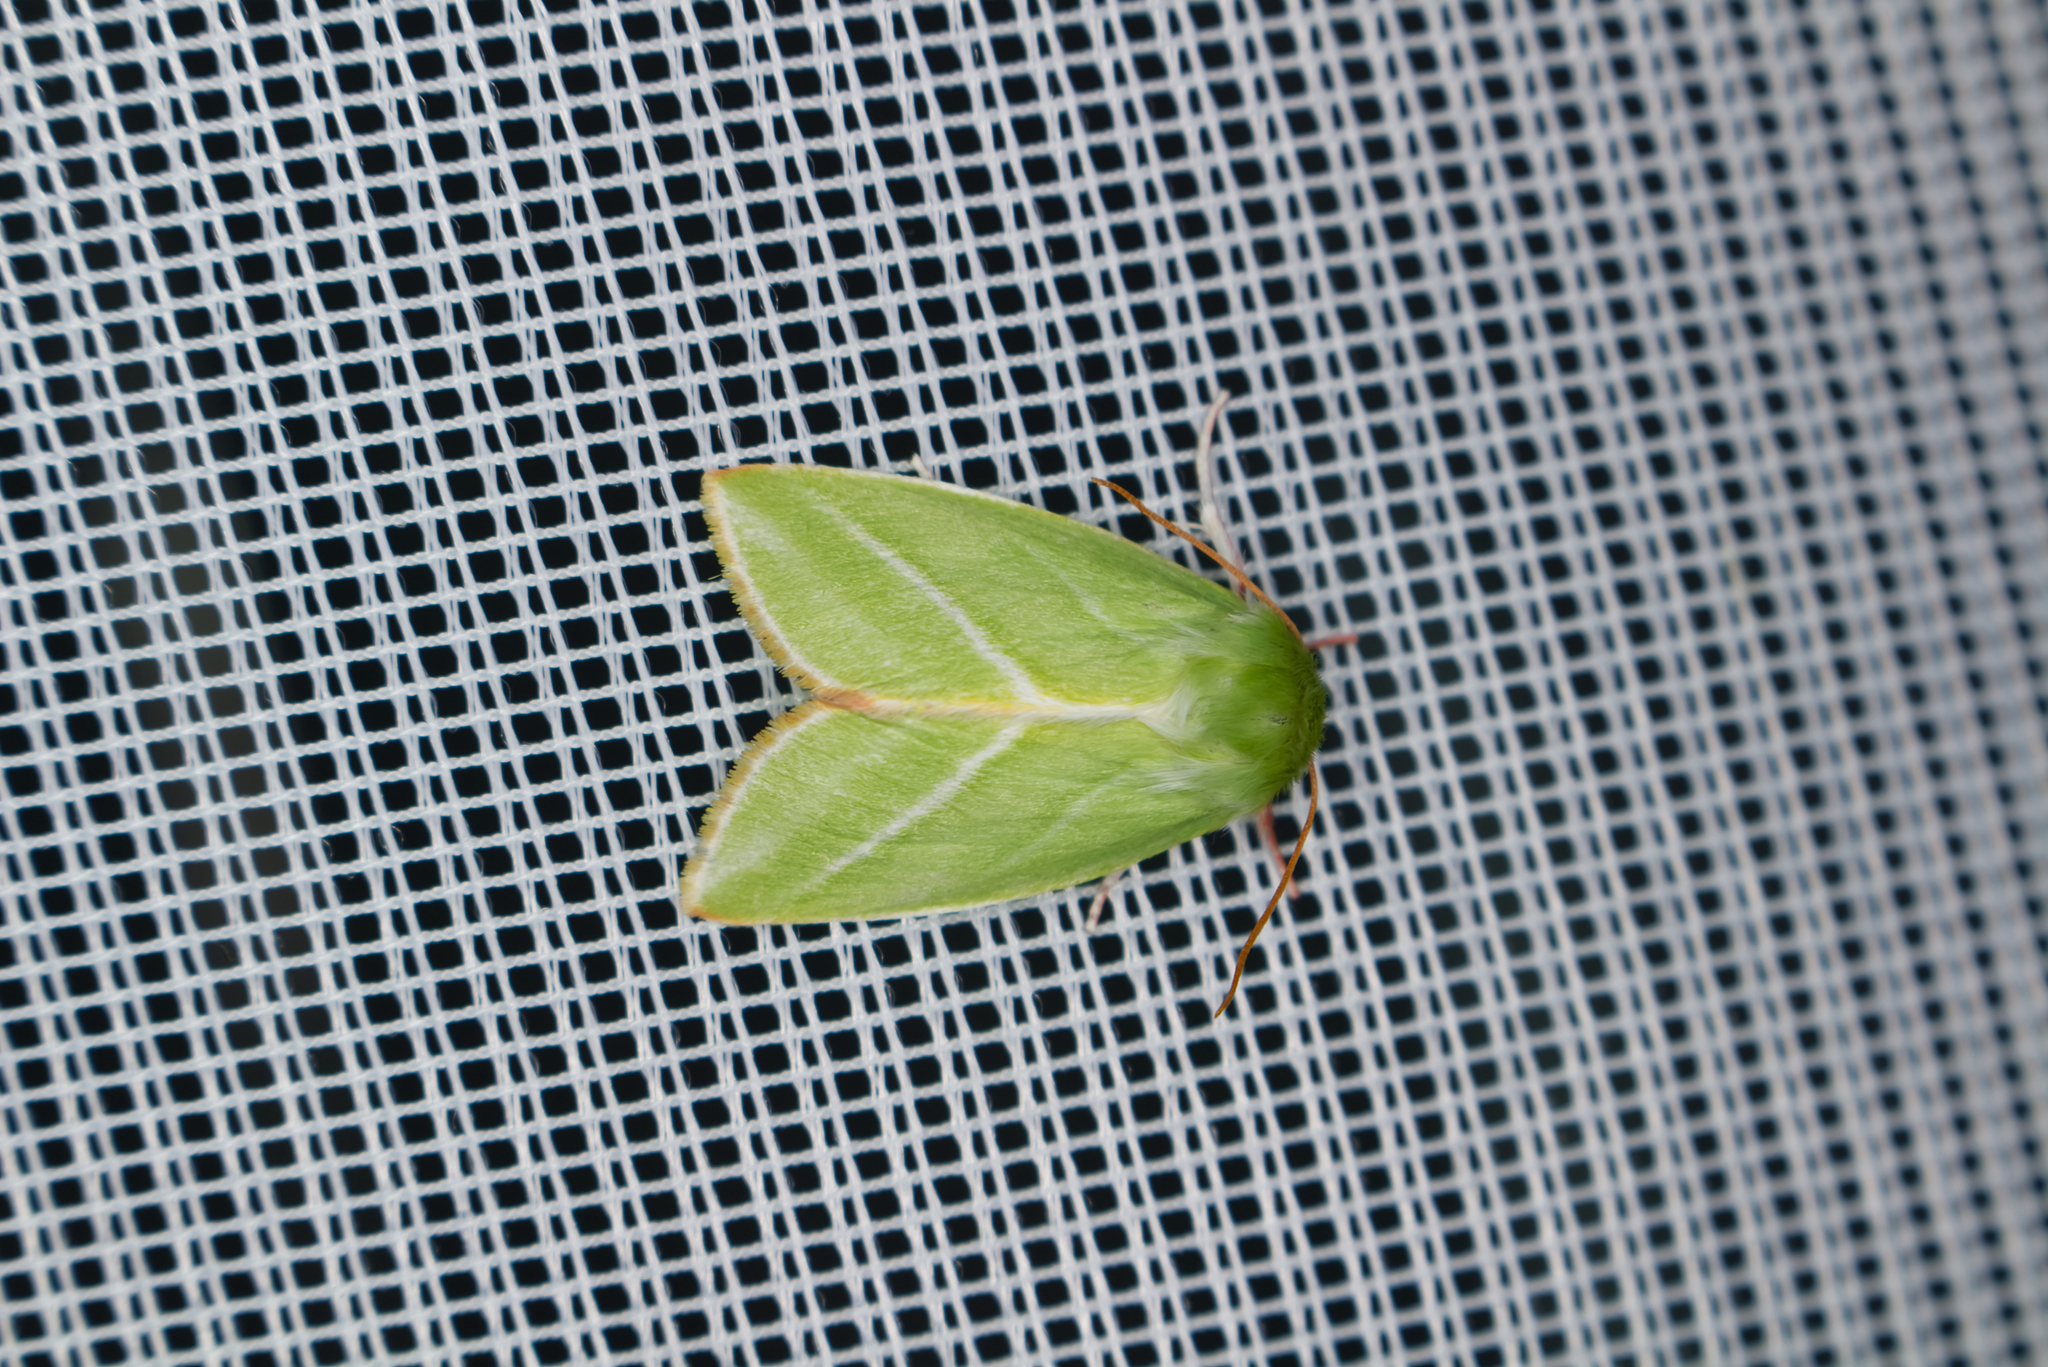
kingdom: Animalia
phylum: Arthropoda
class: Insecta
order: Lepidoptera
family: Nolidae
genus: Pseudoips
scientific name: Pseudoips prasinana
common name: Green silver-lines
